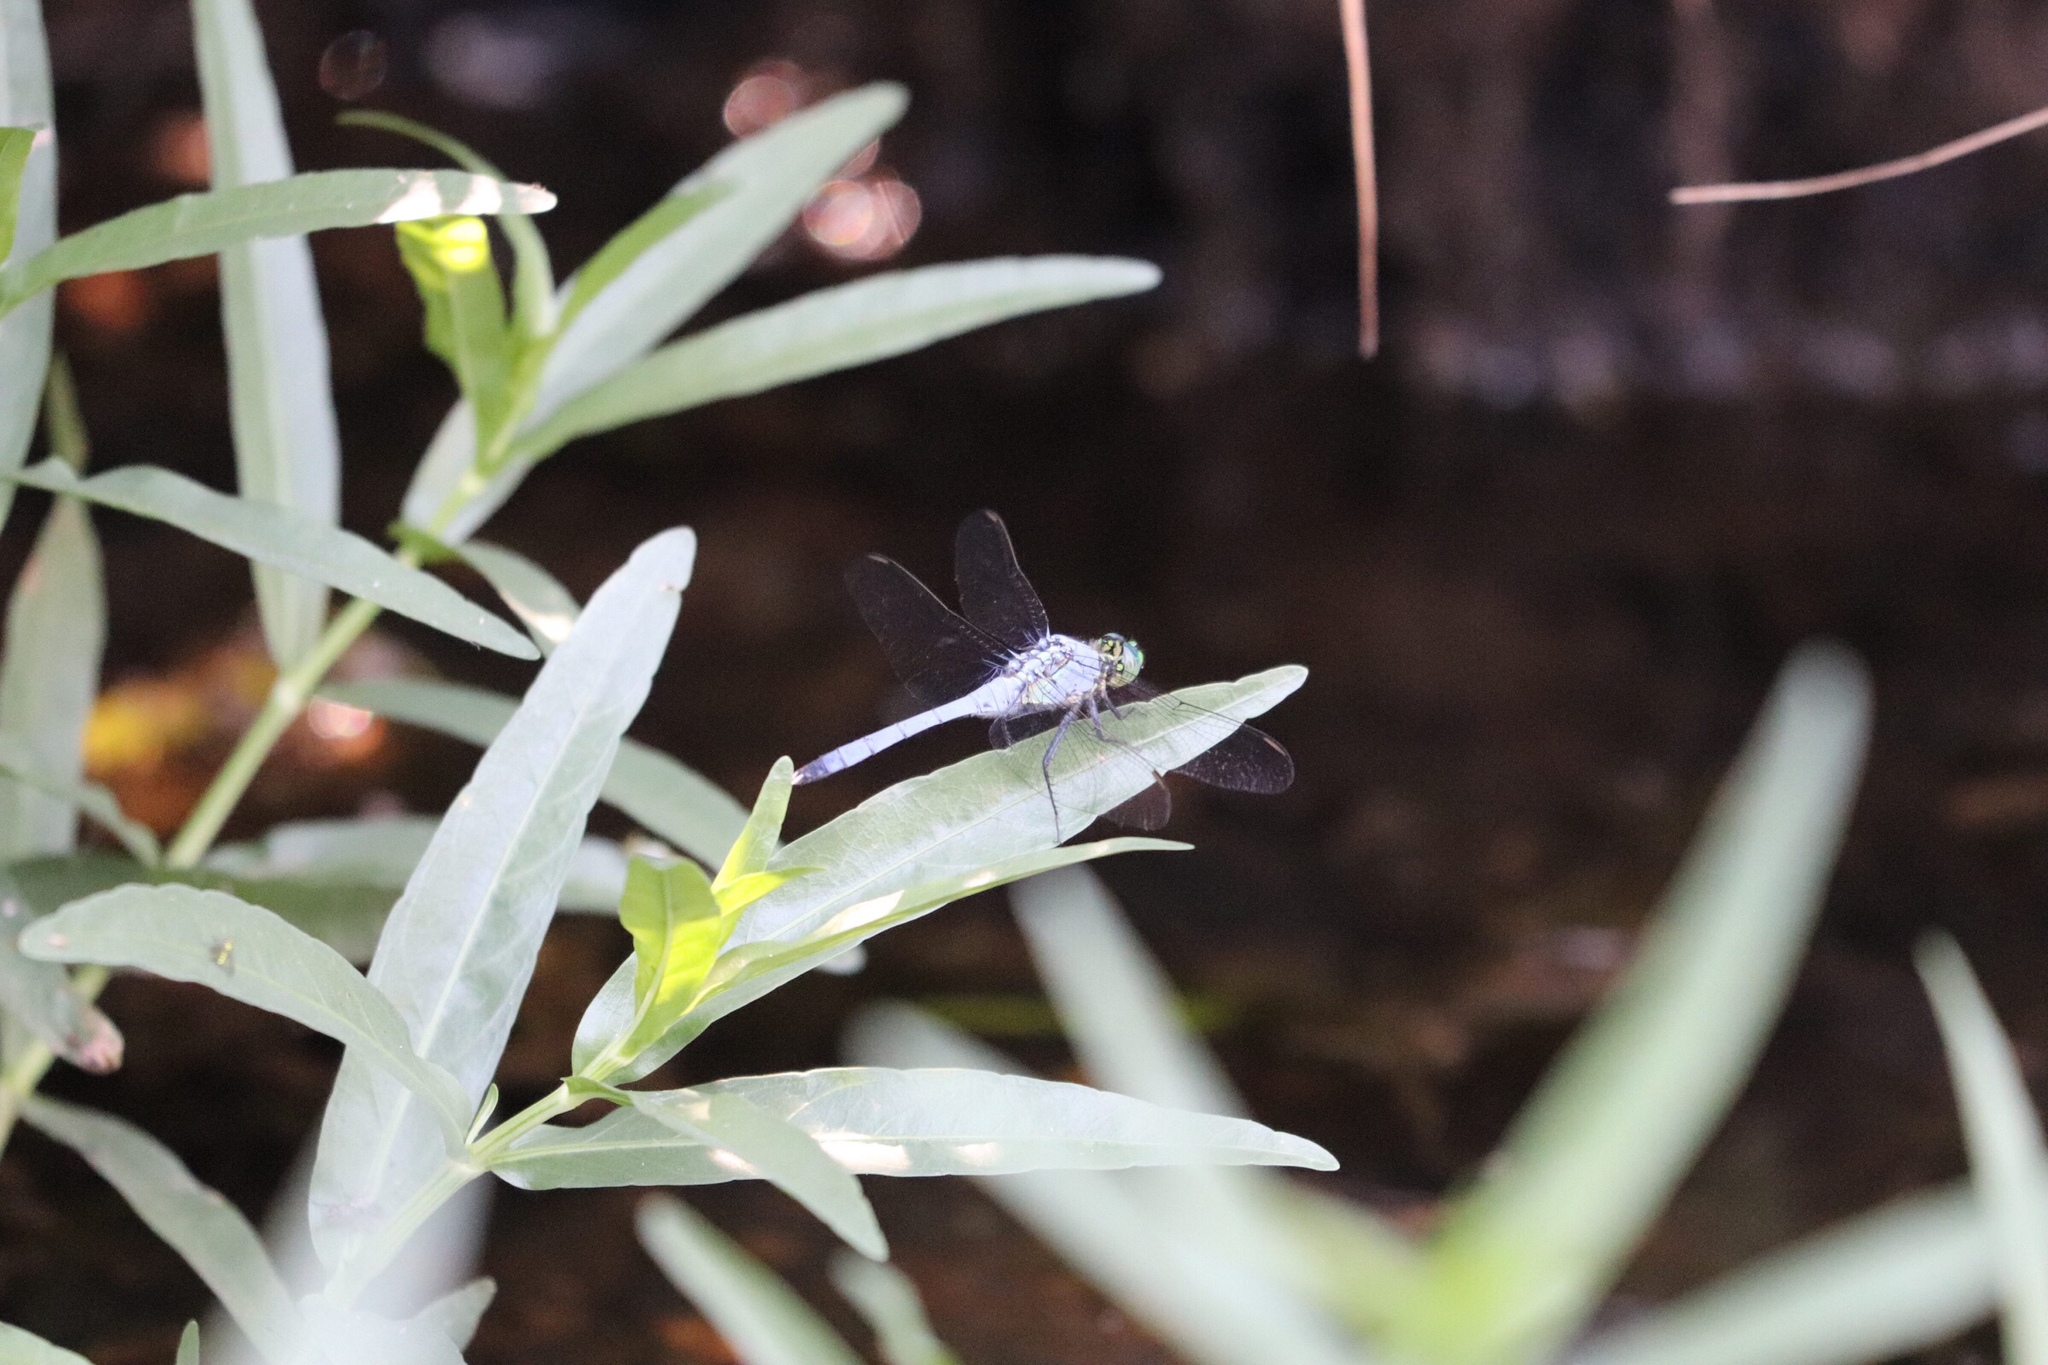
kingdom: Animalia
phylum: Arthropoda
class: Insecta
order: Odonata
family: Libellulidae
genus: Erythemis
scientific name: Erythemis simplicicollis
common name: Eastern pondhawk
